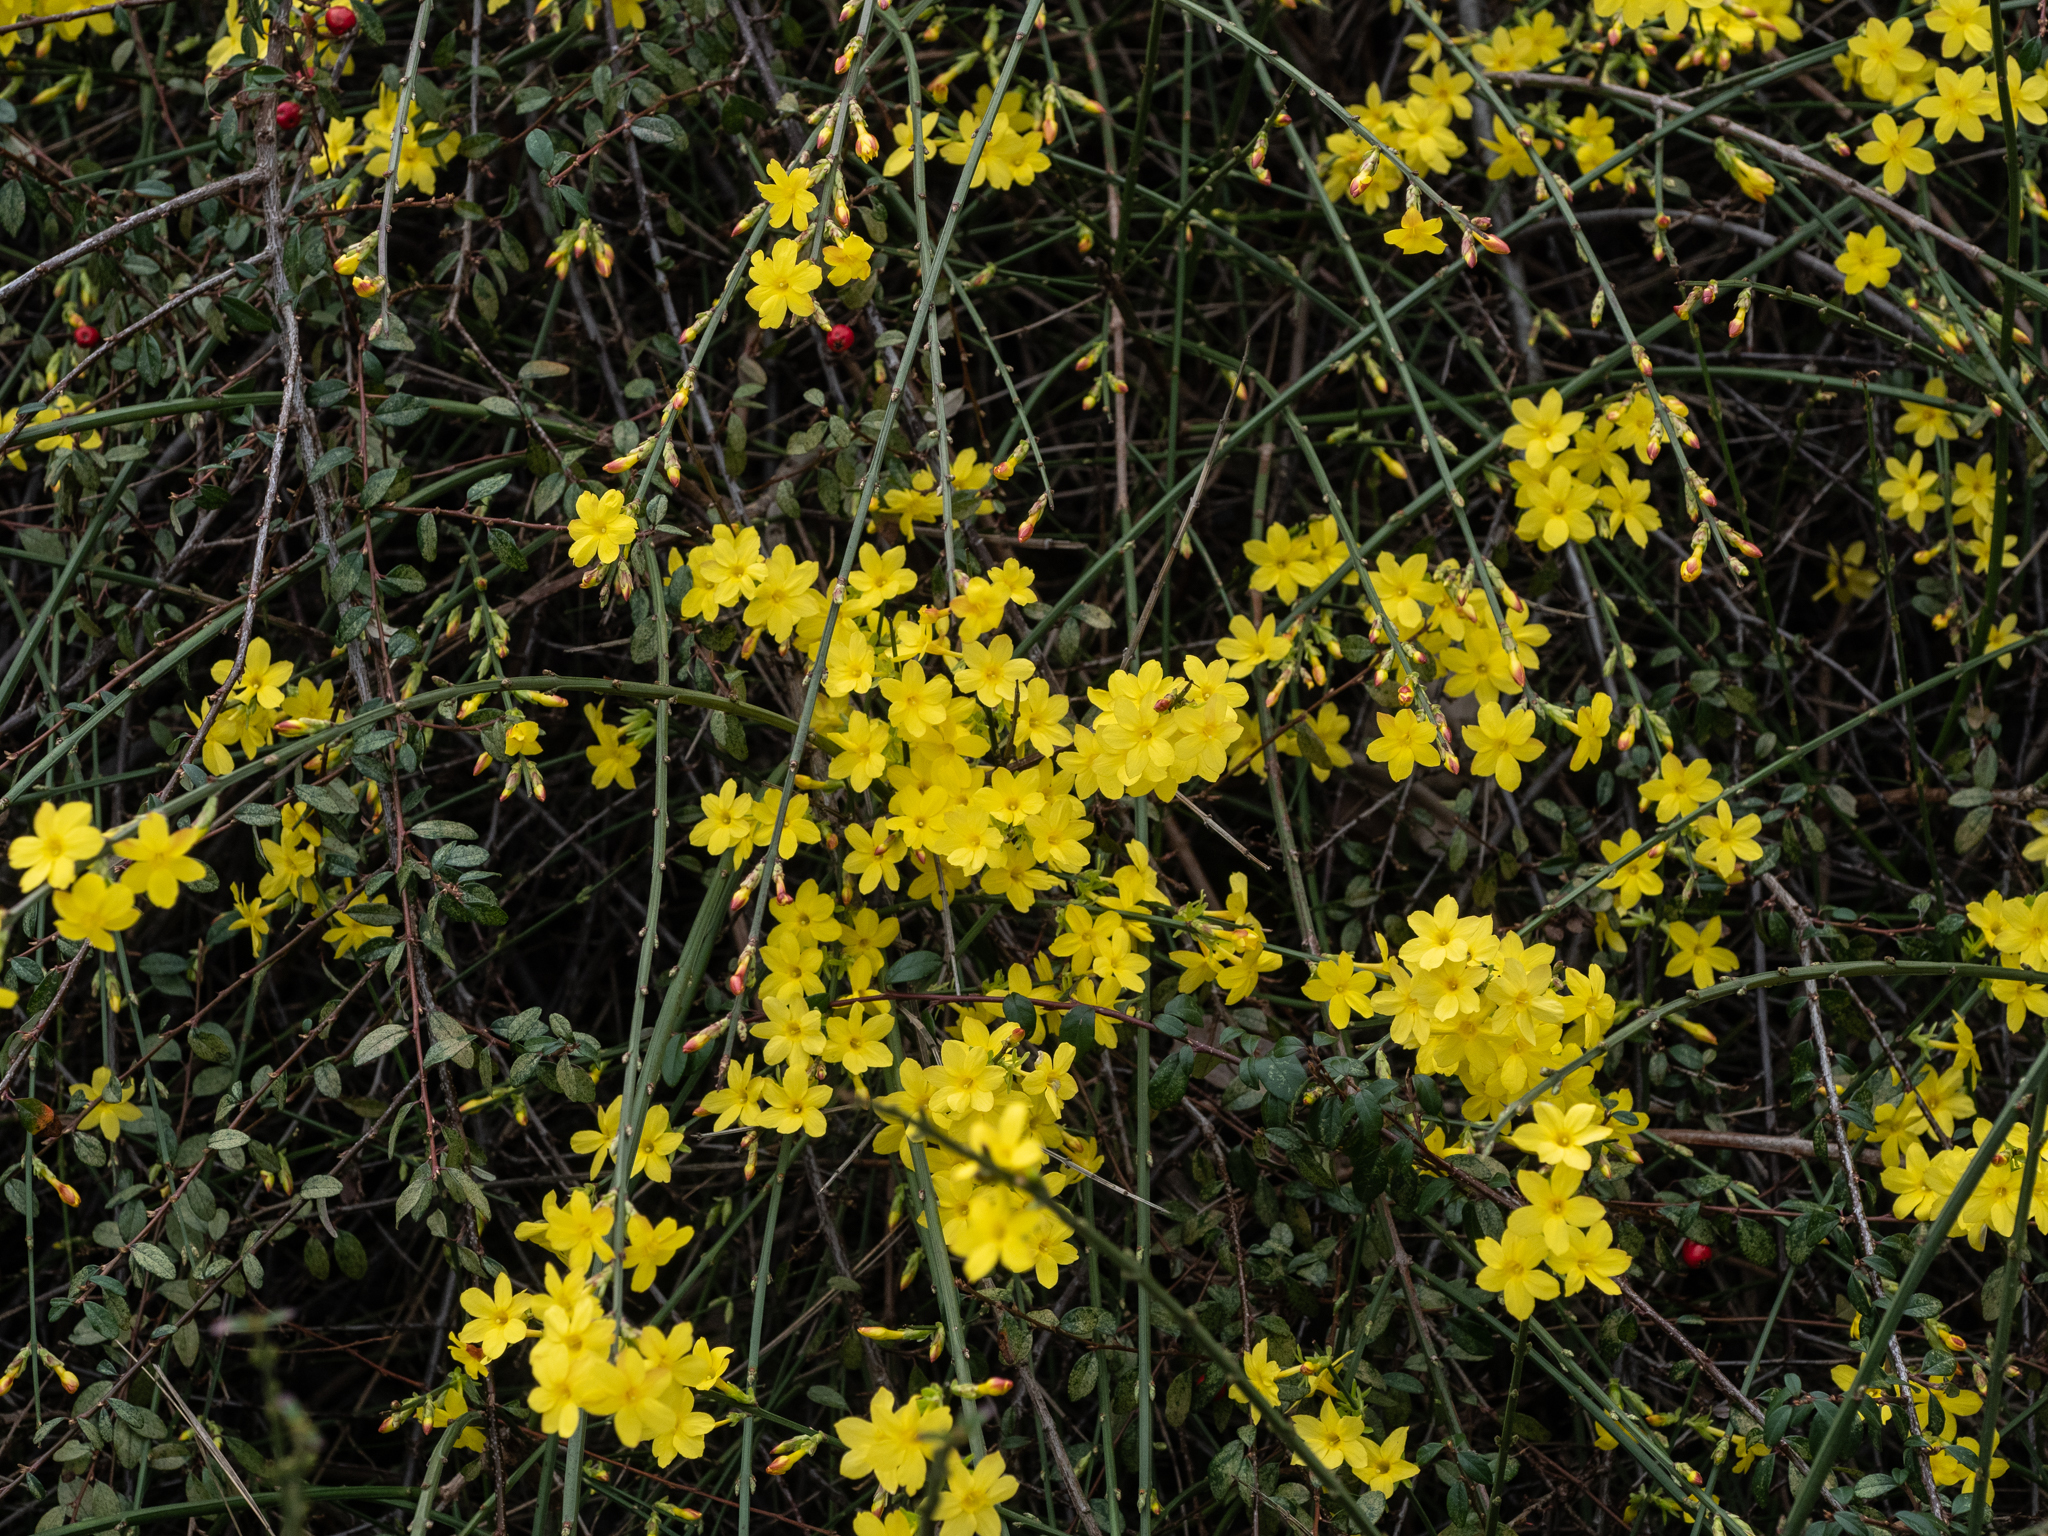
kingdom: Plantae
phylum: Tracheophyta
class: Magnoliopsida
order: Lamiales
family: Oleaceae
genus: Jasminum
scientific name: Jasminum nudiflorum
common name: Winter jasmine
